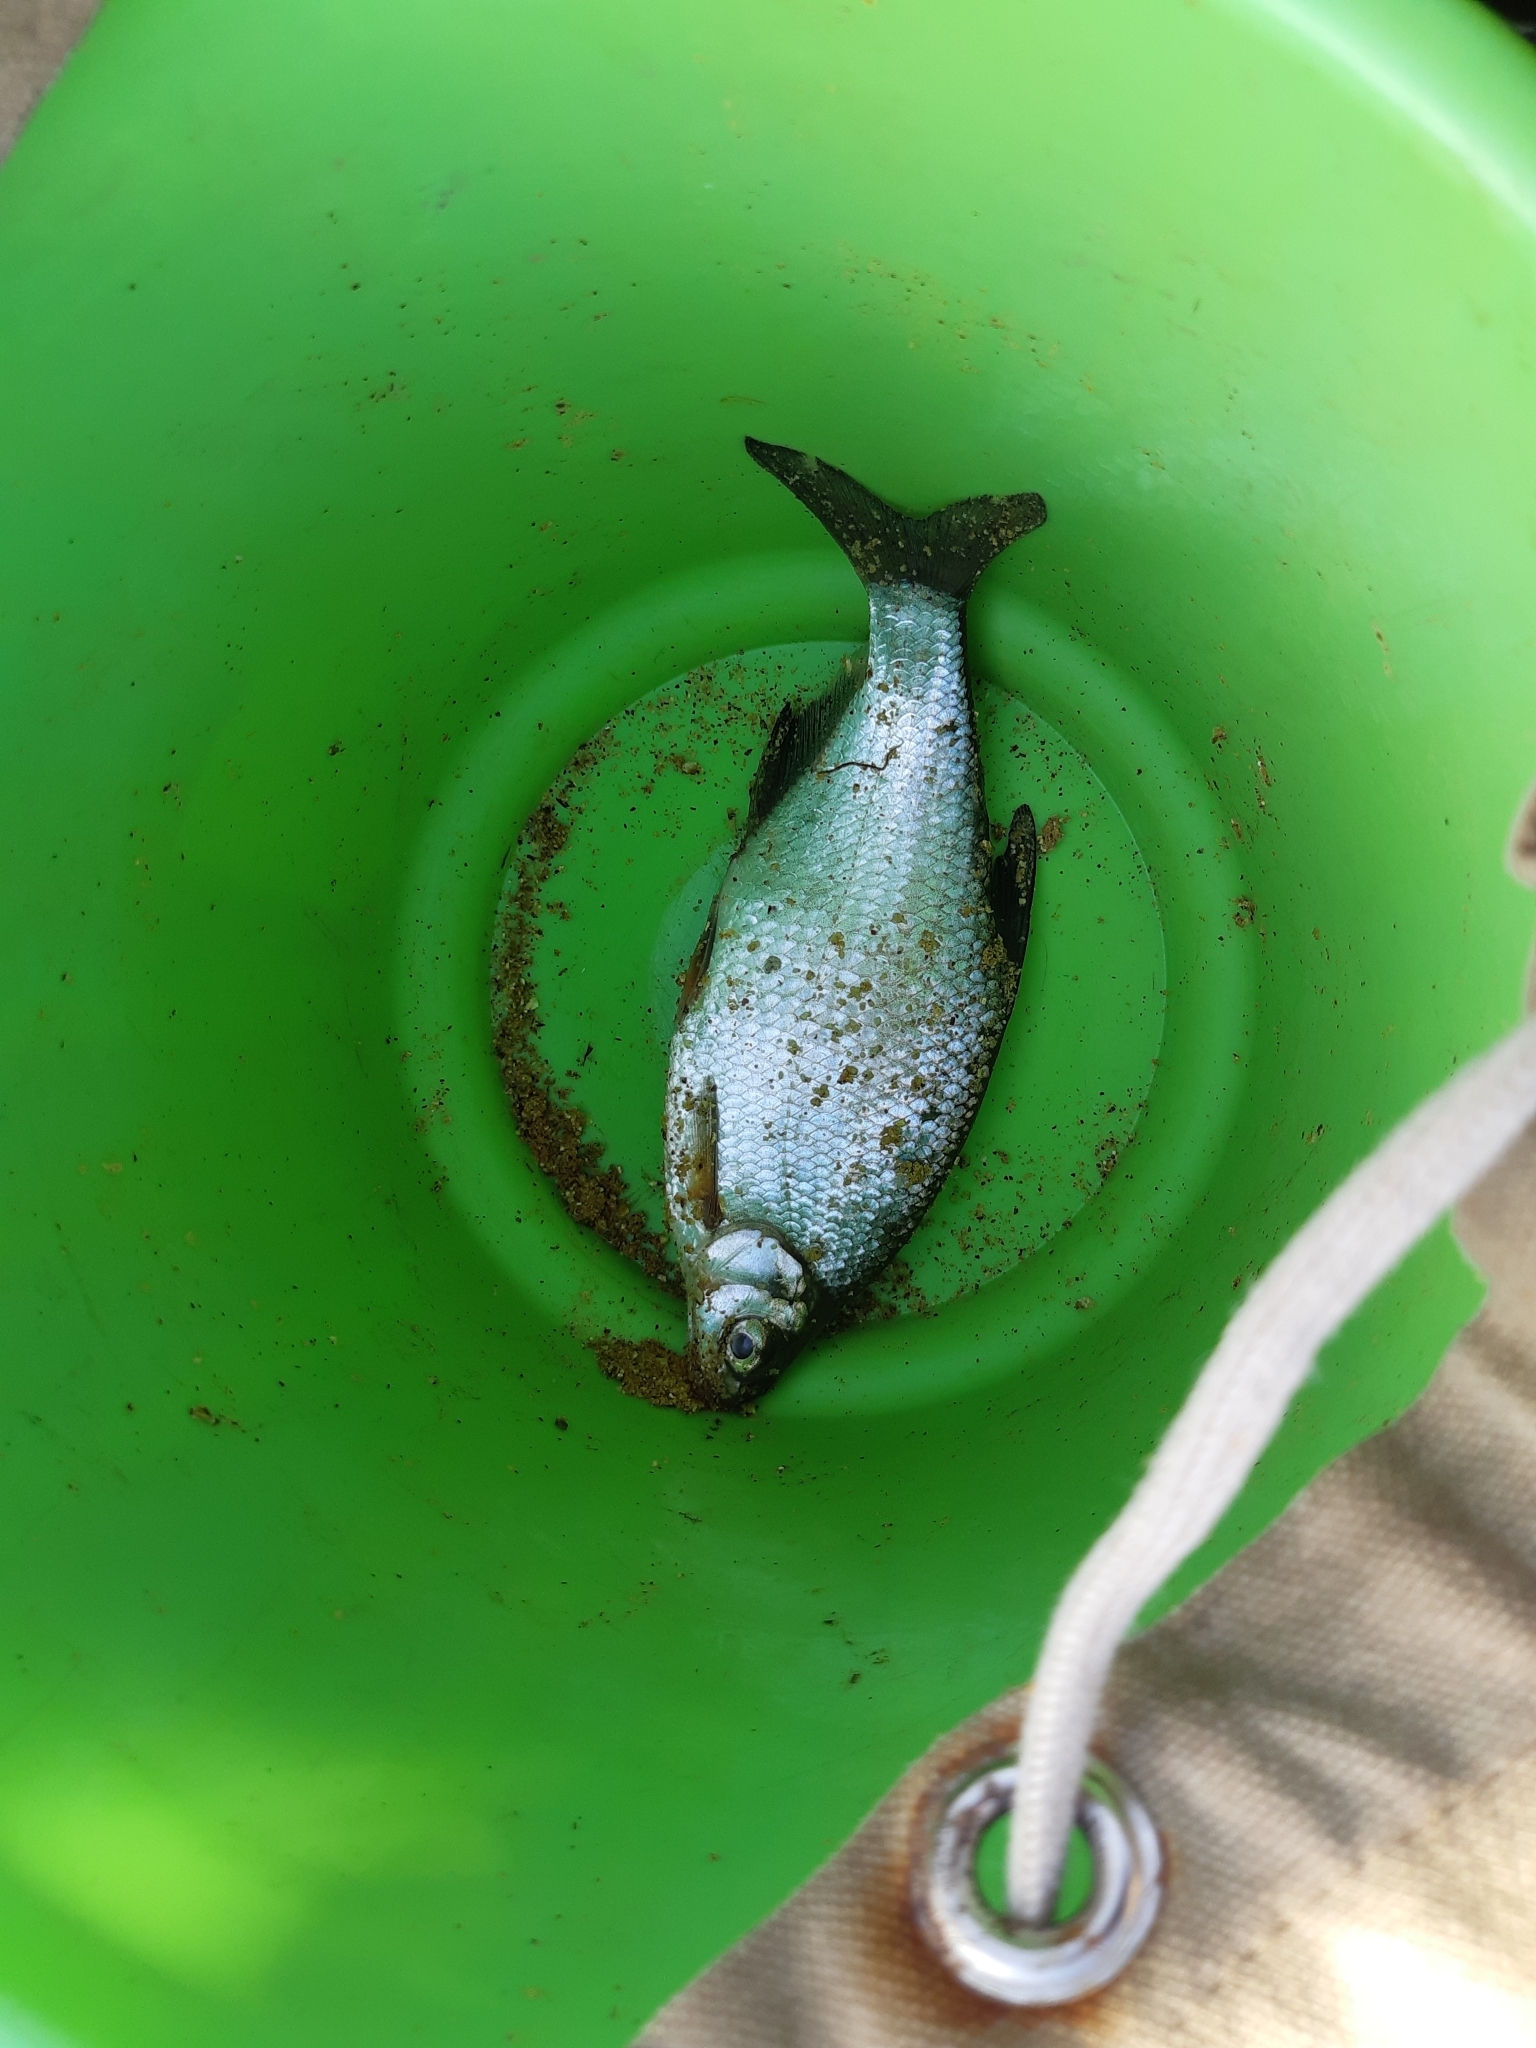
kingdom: Animalia
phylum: Chordata
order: Cypriniformes
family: Cyprinidae
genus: Blicca
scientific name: Blicca bjoerkna
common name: White bream
